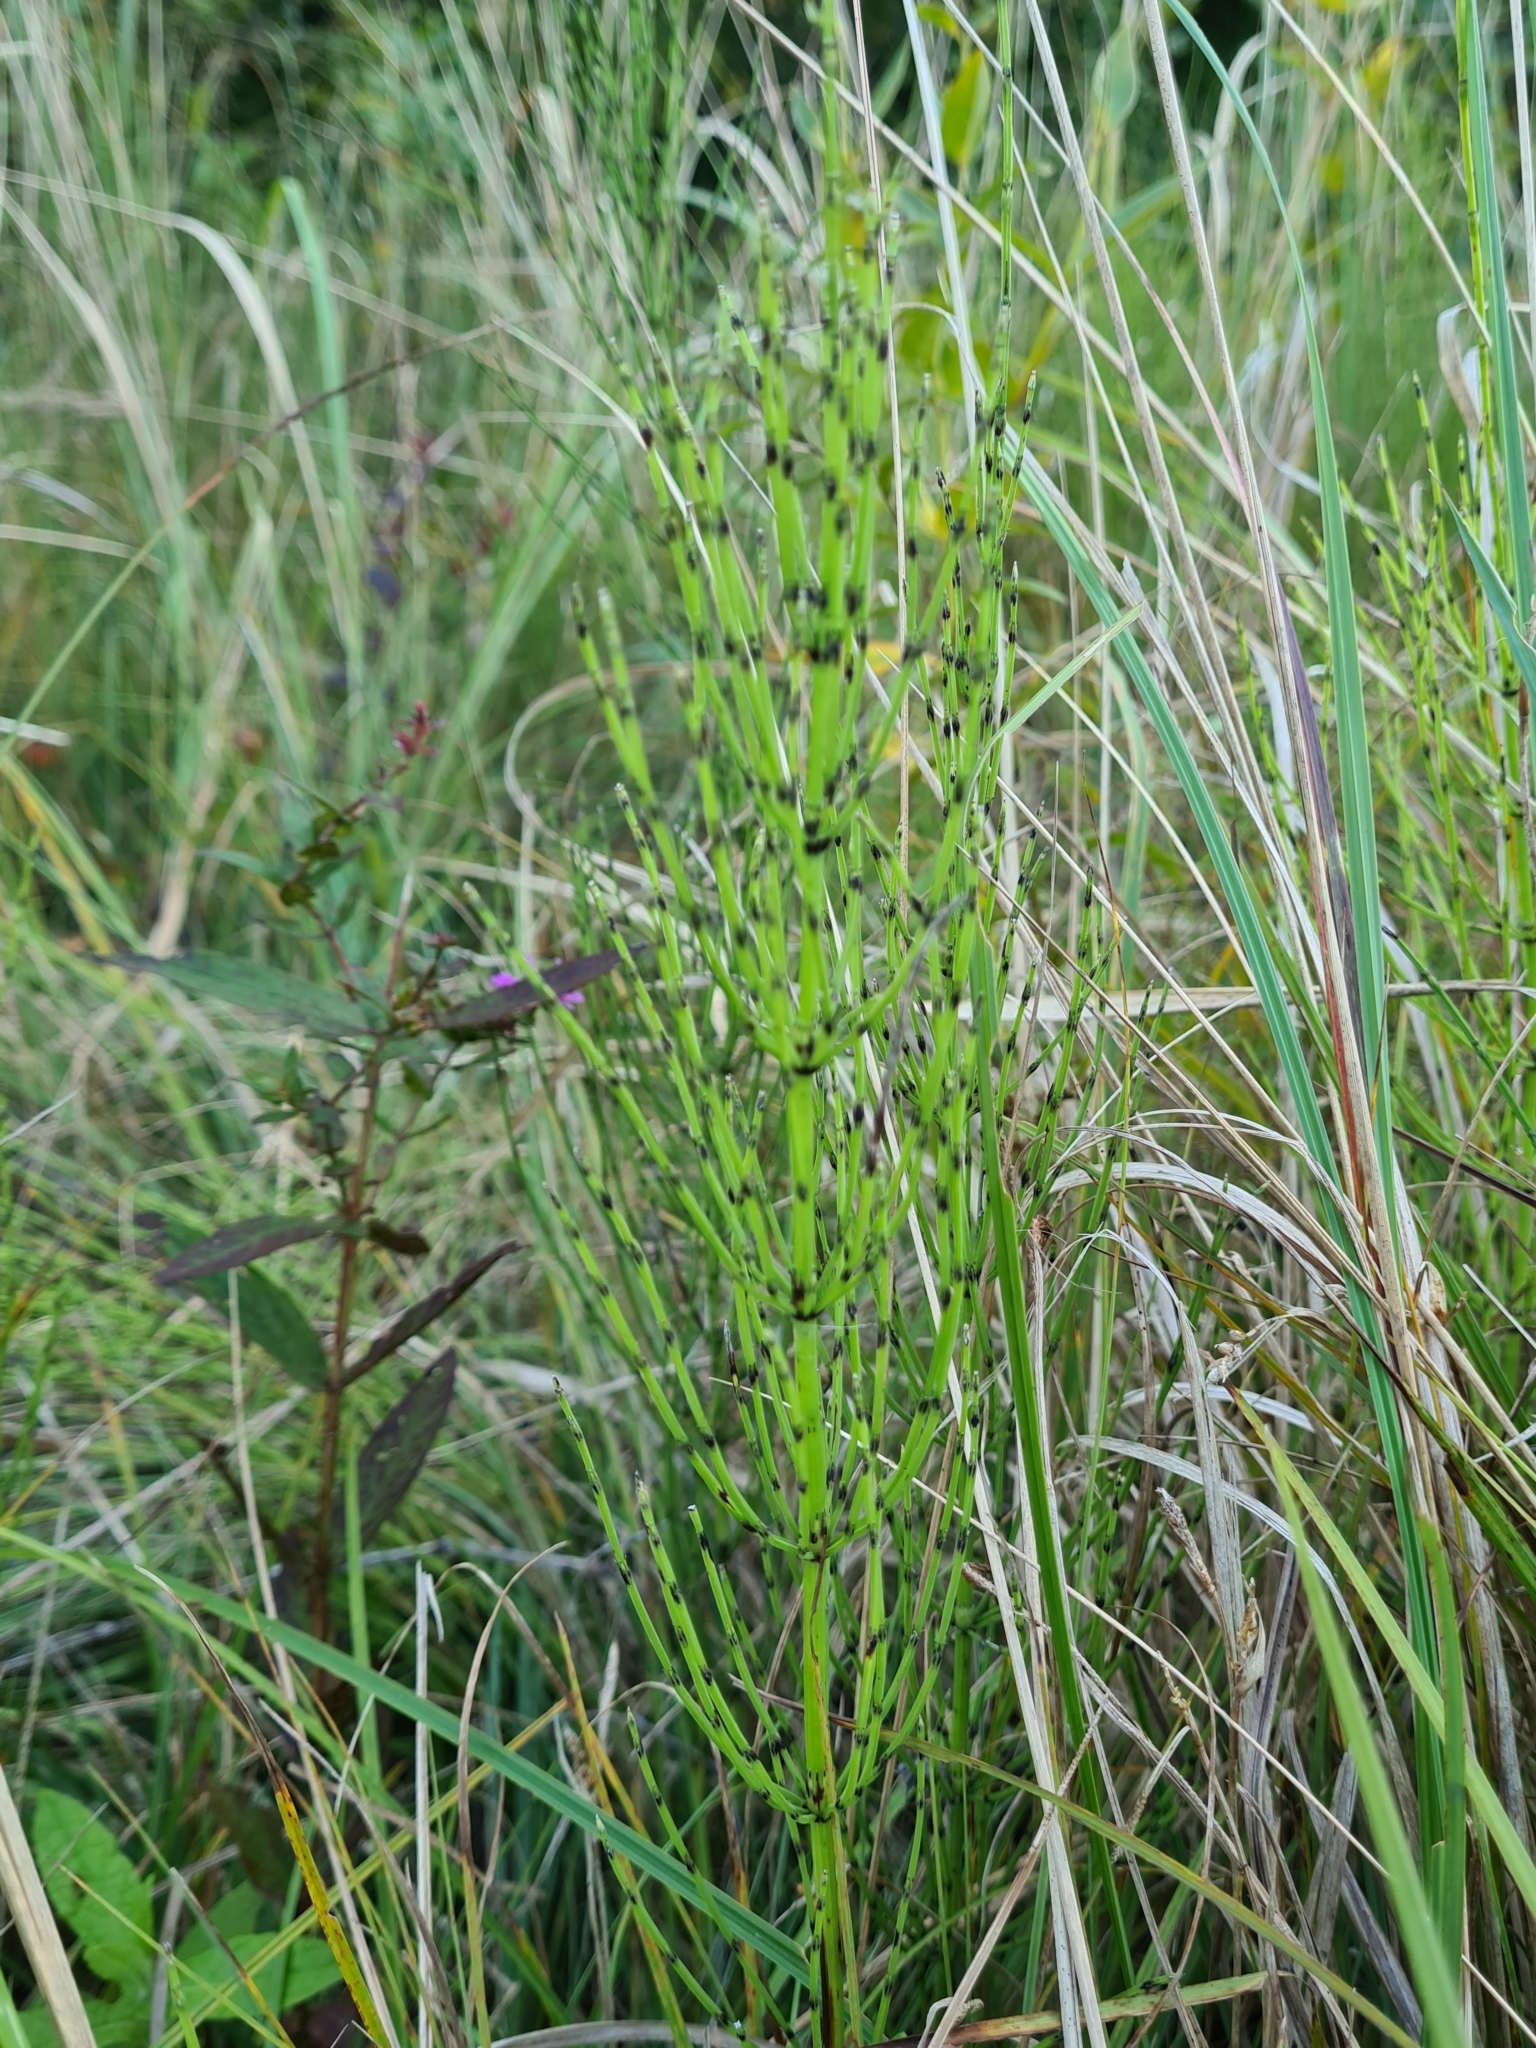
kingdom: Plantae
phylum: Tracheophyta
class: Polypodiopsida
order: Equisetales
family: Equisetaceae
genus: Equisetum
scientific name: Equisetum arvense
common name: Field horsetail
